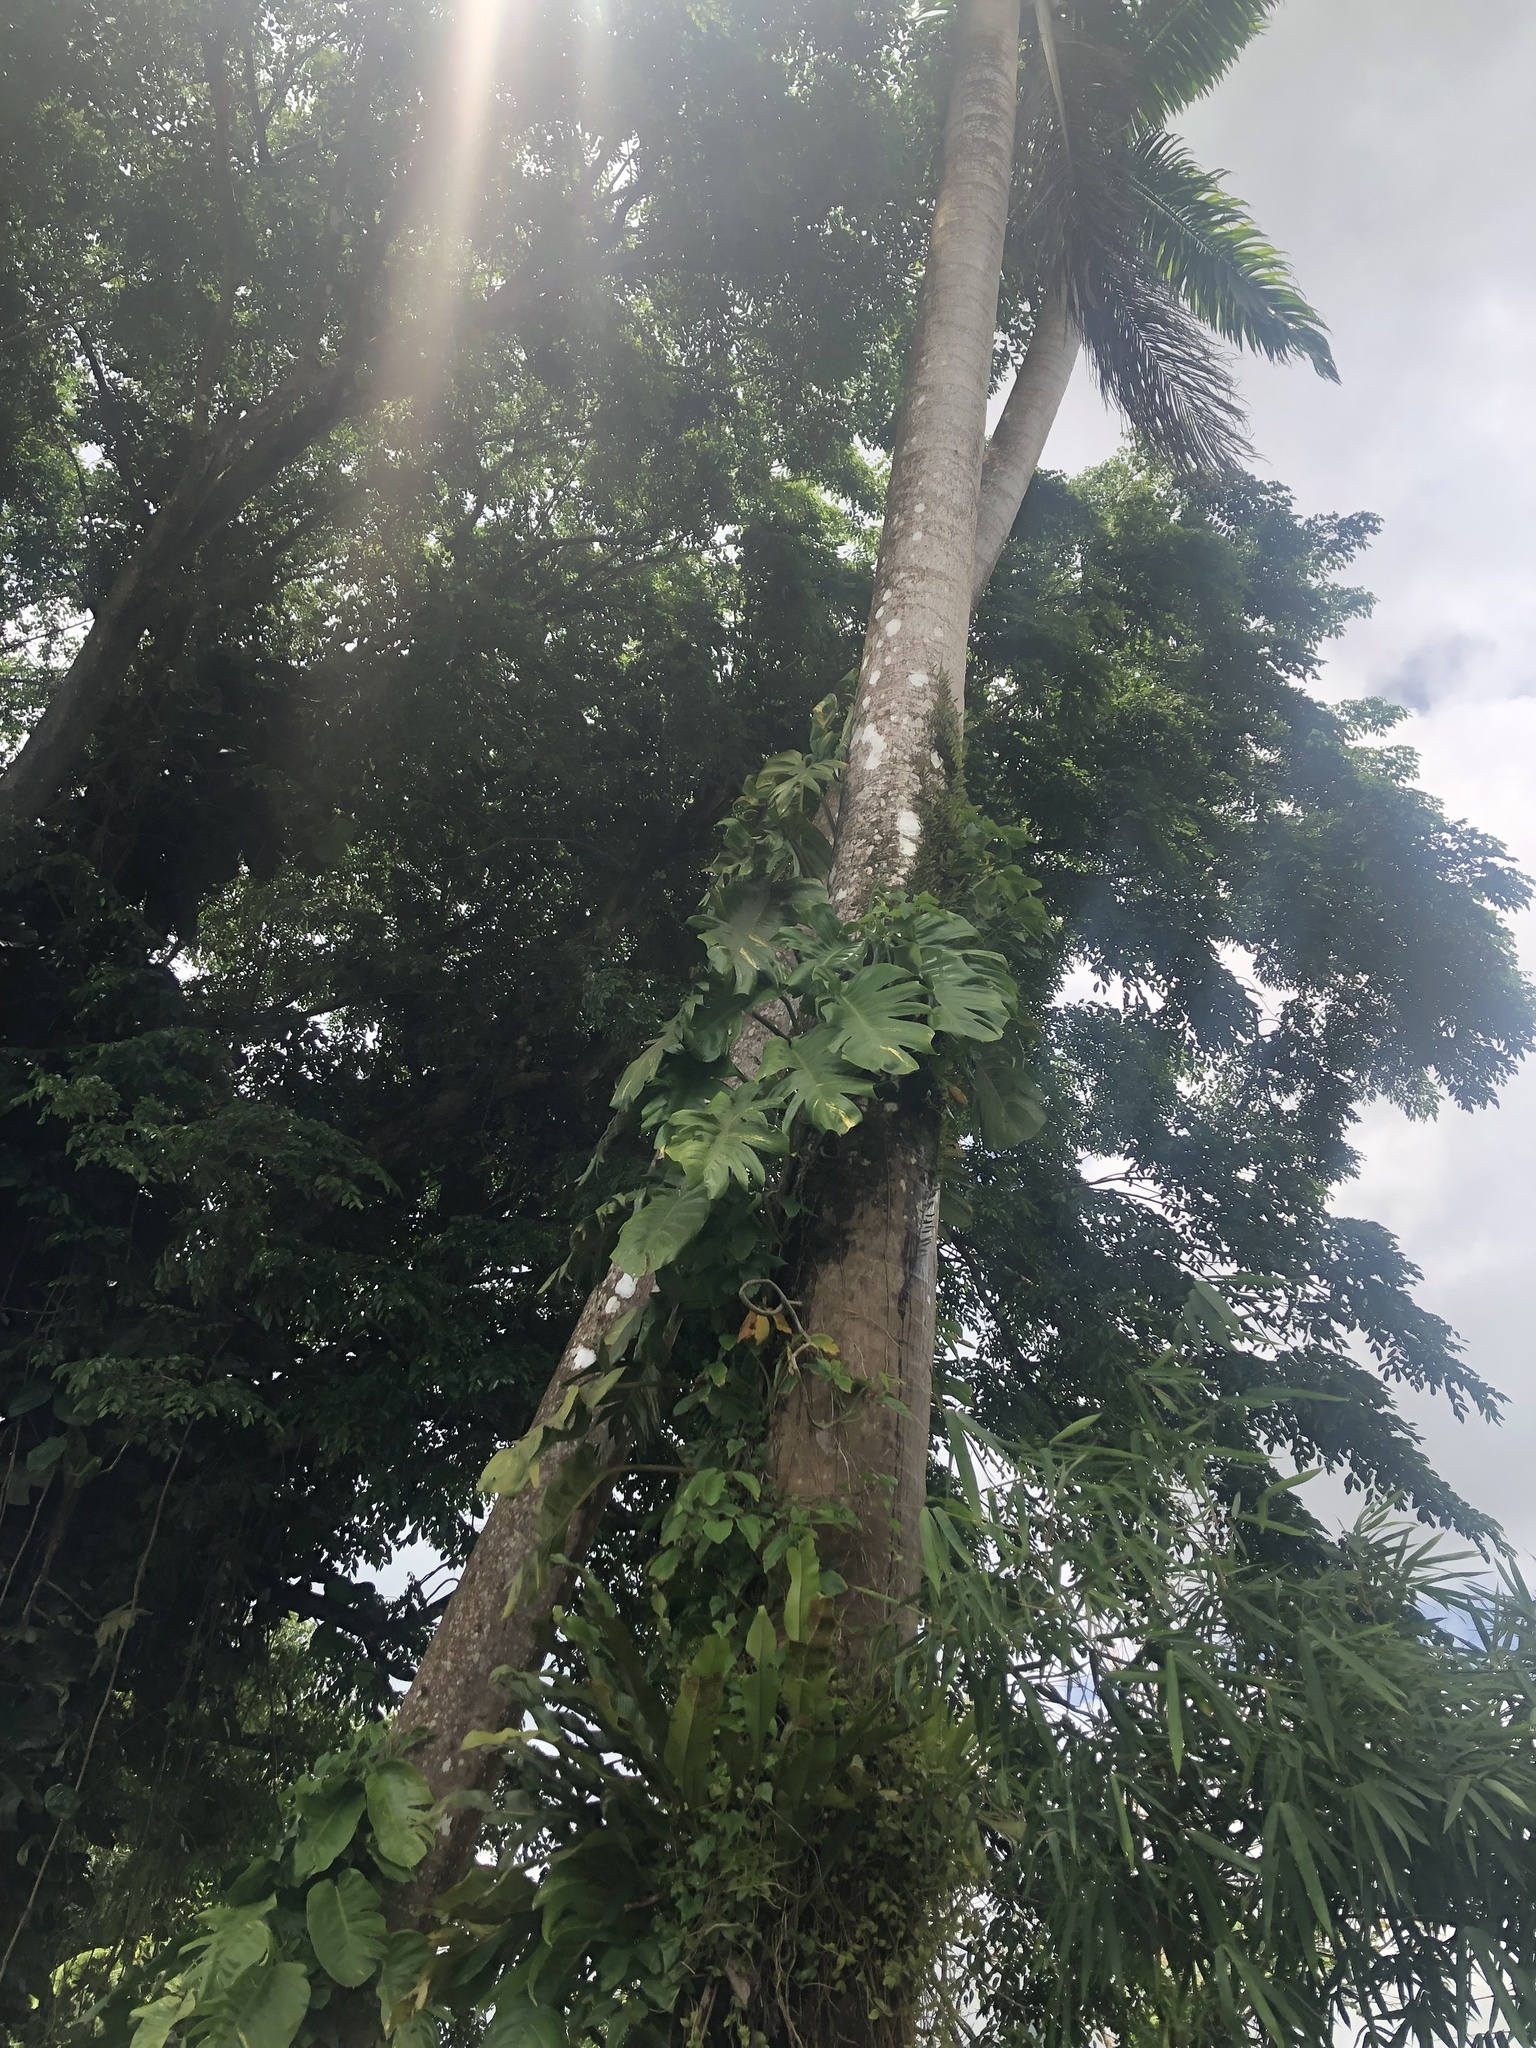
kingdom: Plantae
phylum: Tracheophyta
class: Liliopsida
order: Alismatales
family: Araceae
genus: Epipremnum
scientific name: Epipremnum aureum
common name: Golden hunter's-robe
